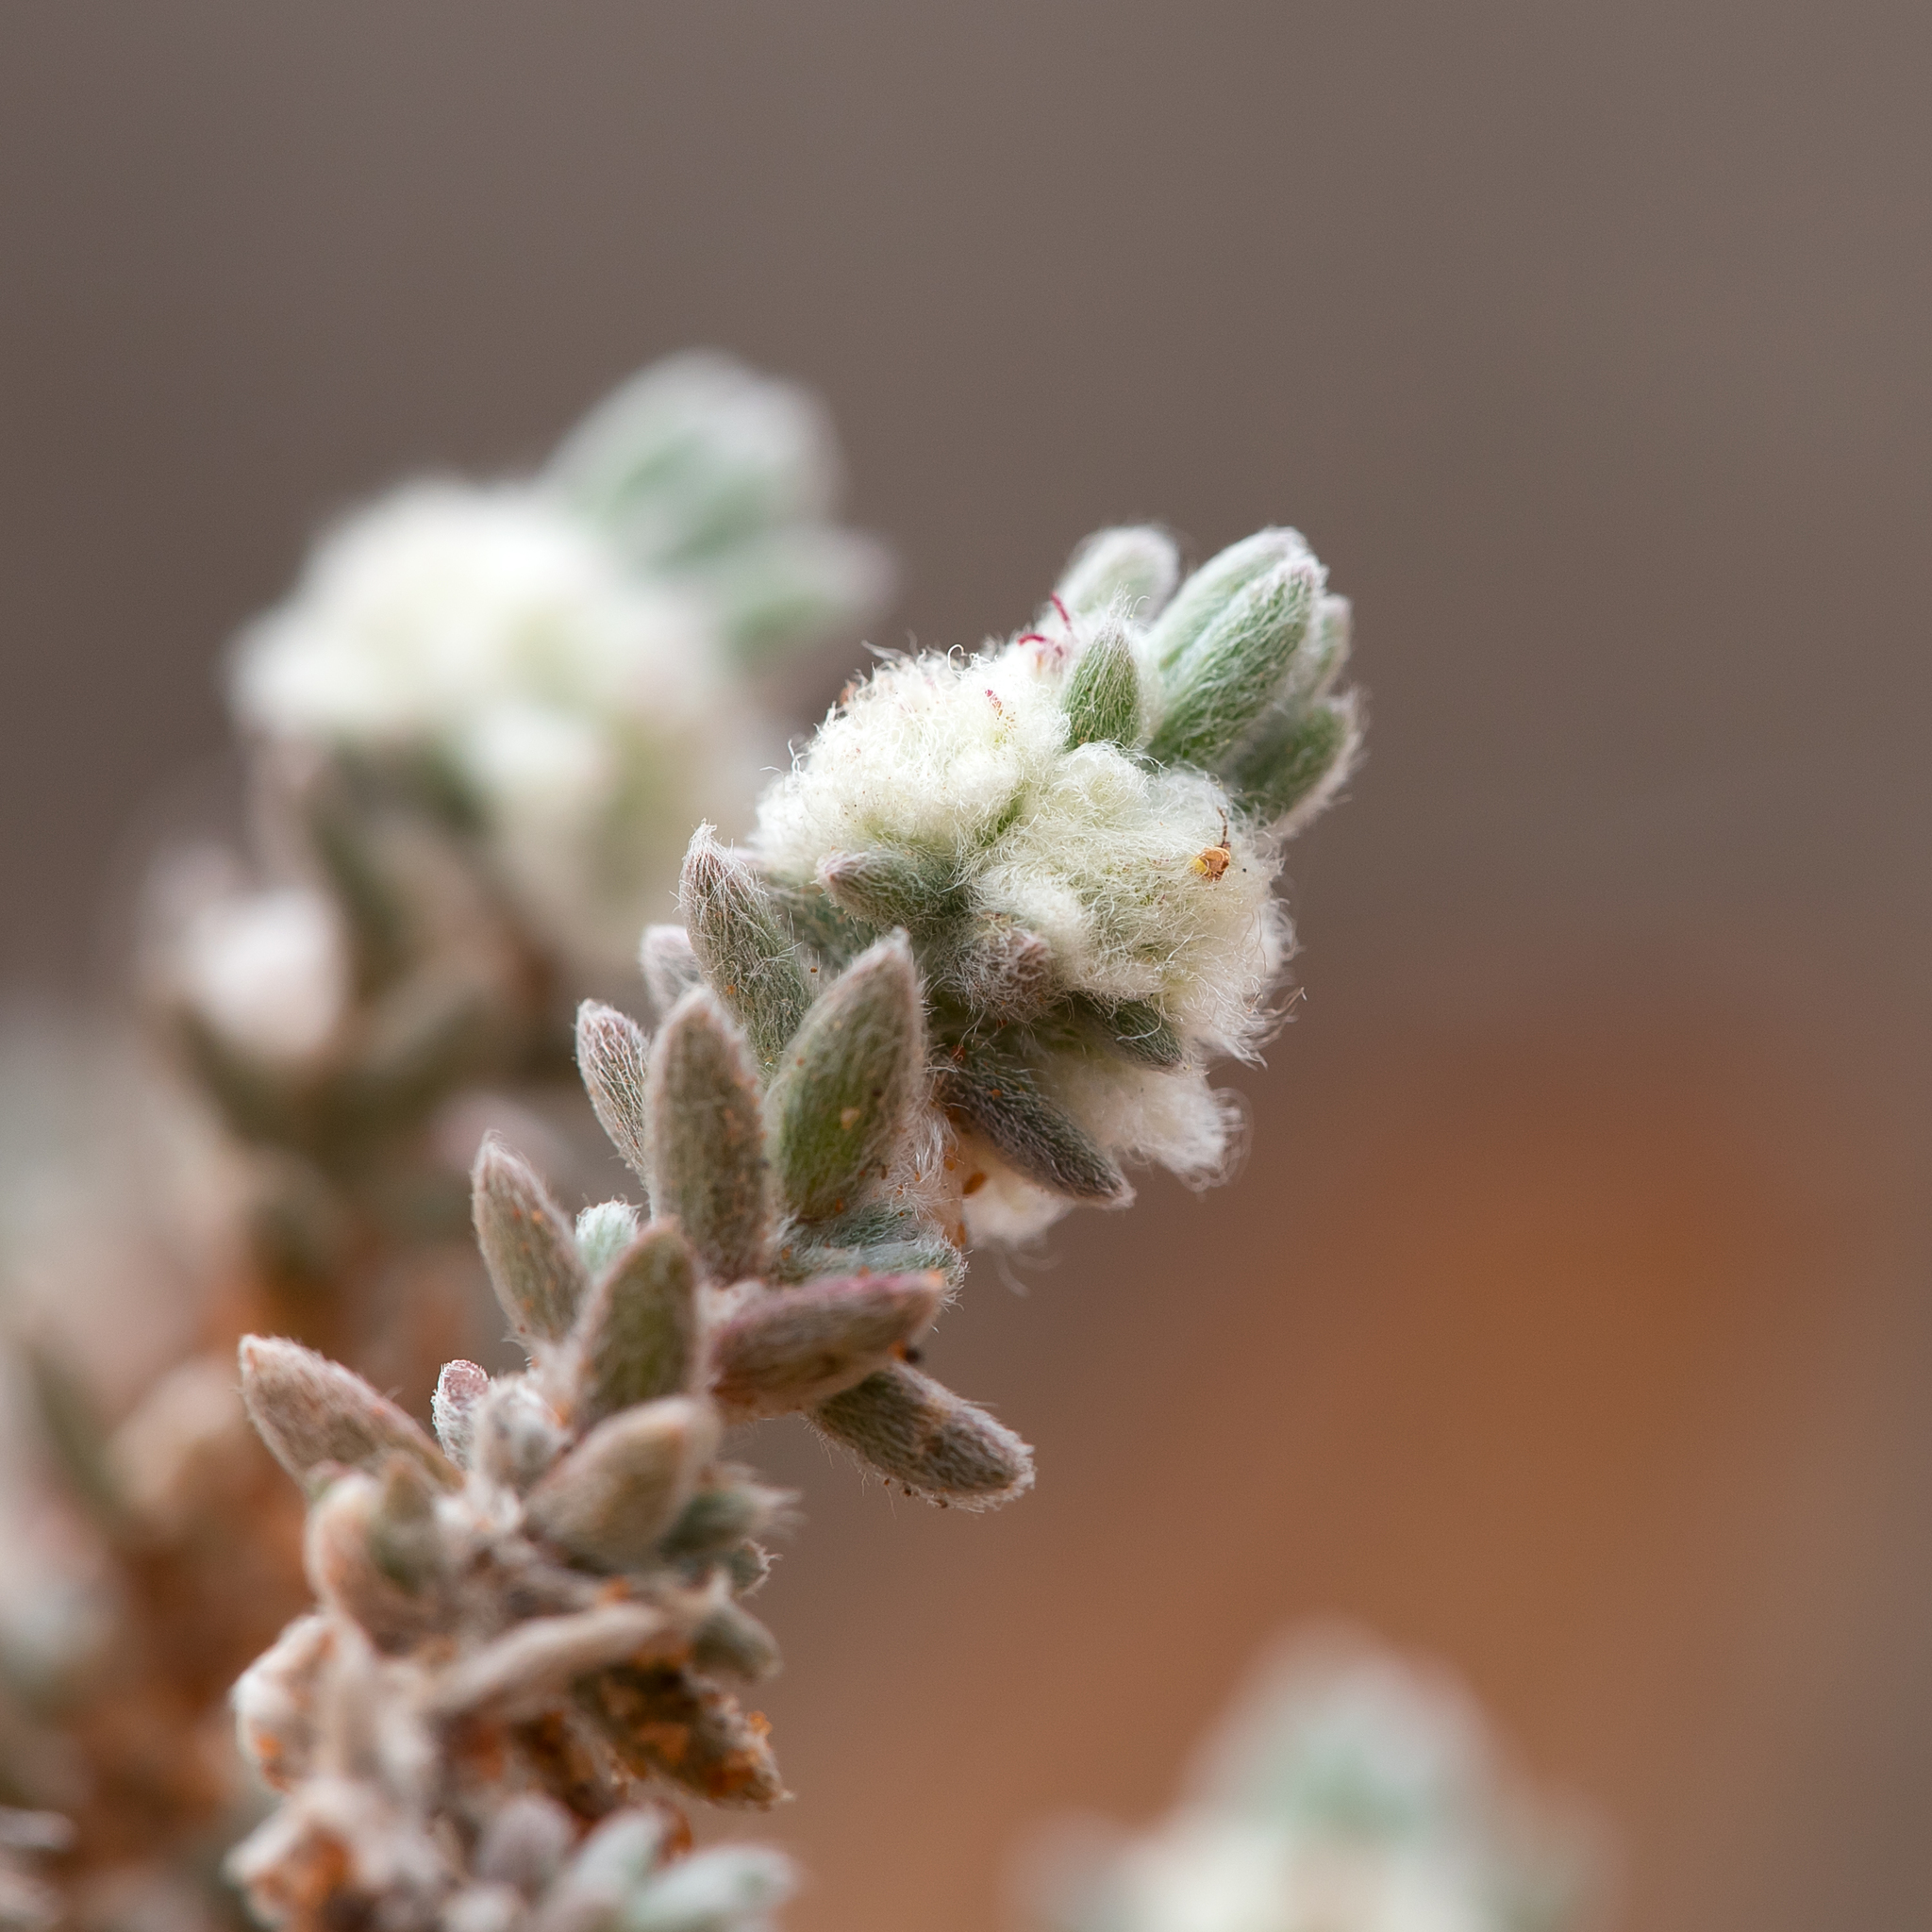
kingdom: Plantae
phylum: Tracheophyta
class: Magnoliopsida
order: Caryophyllales
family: Amaranthaceae
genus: Maireana
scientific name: Maireana sclerolaenoides
